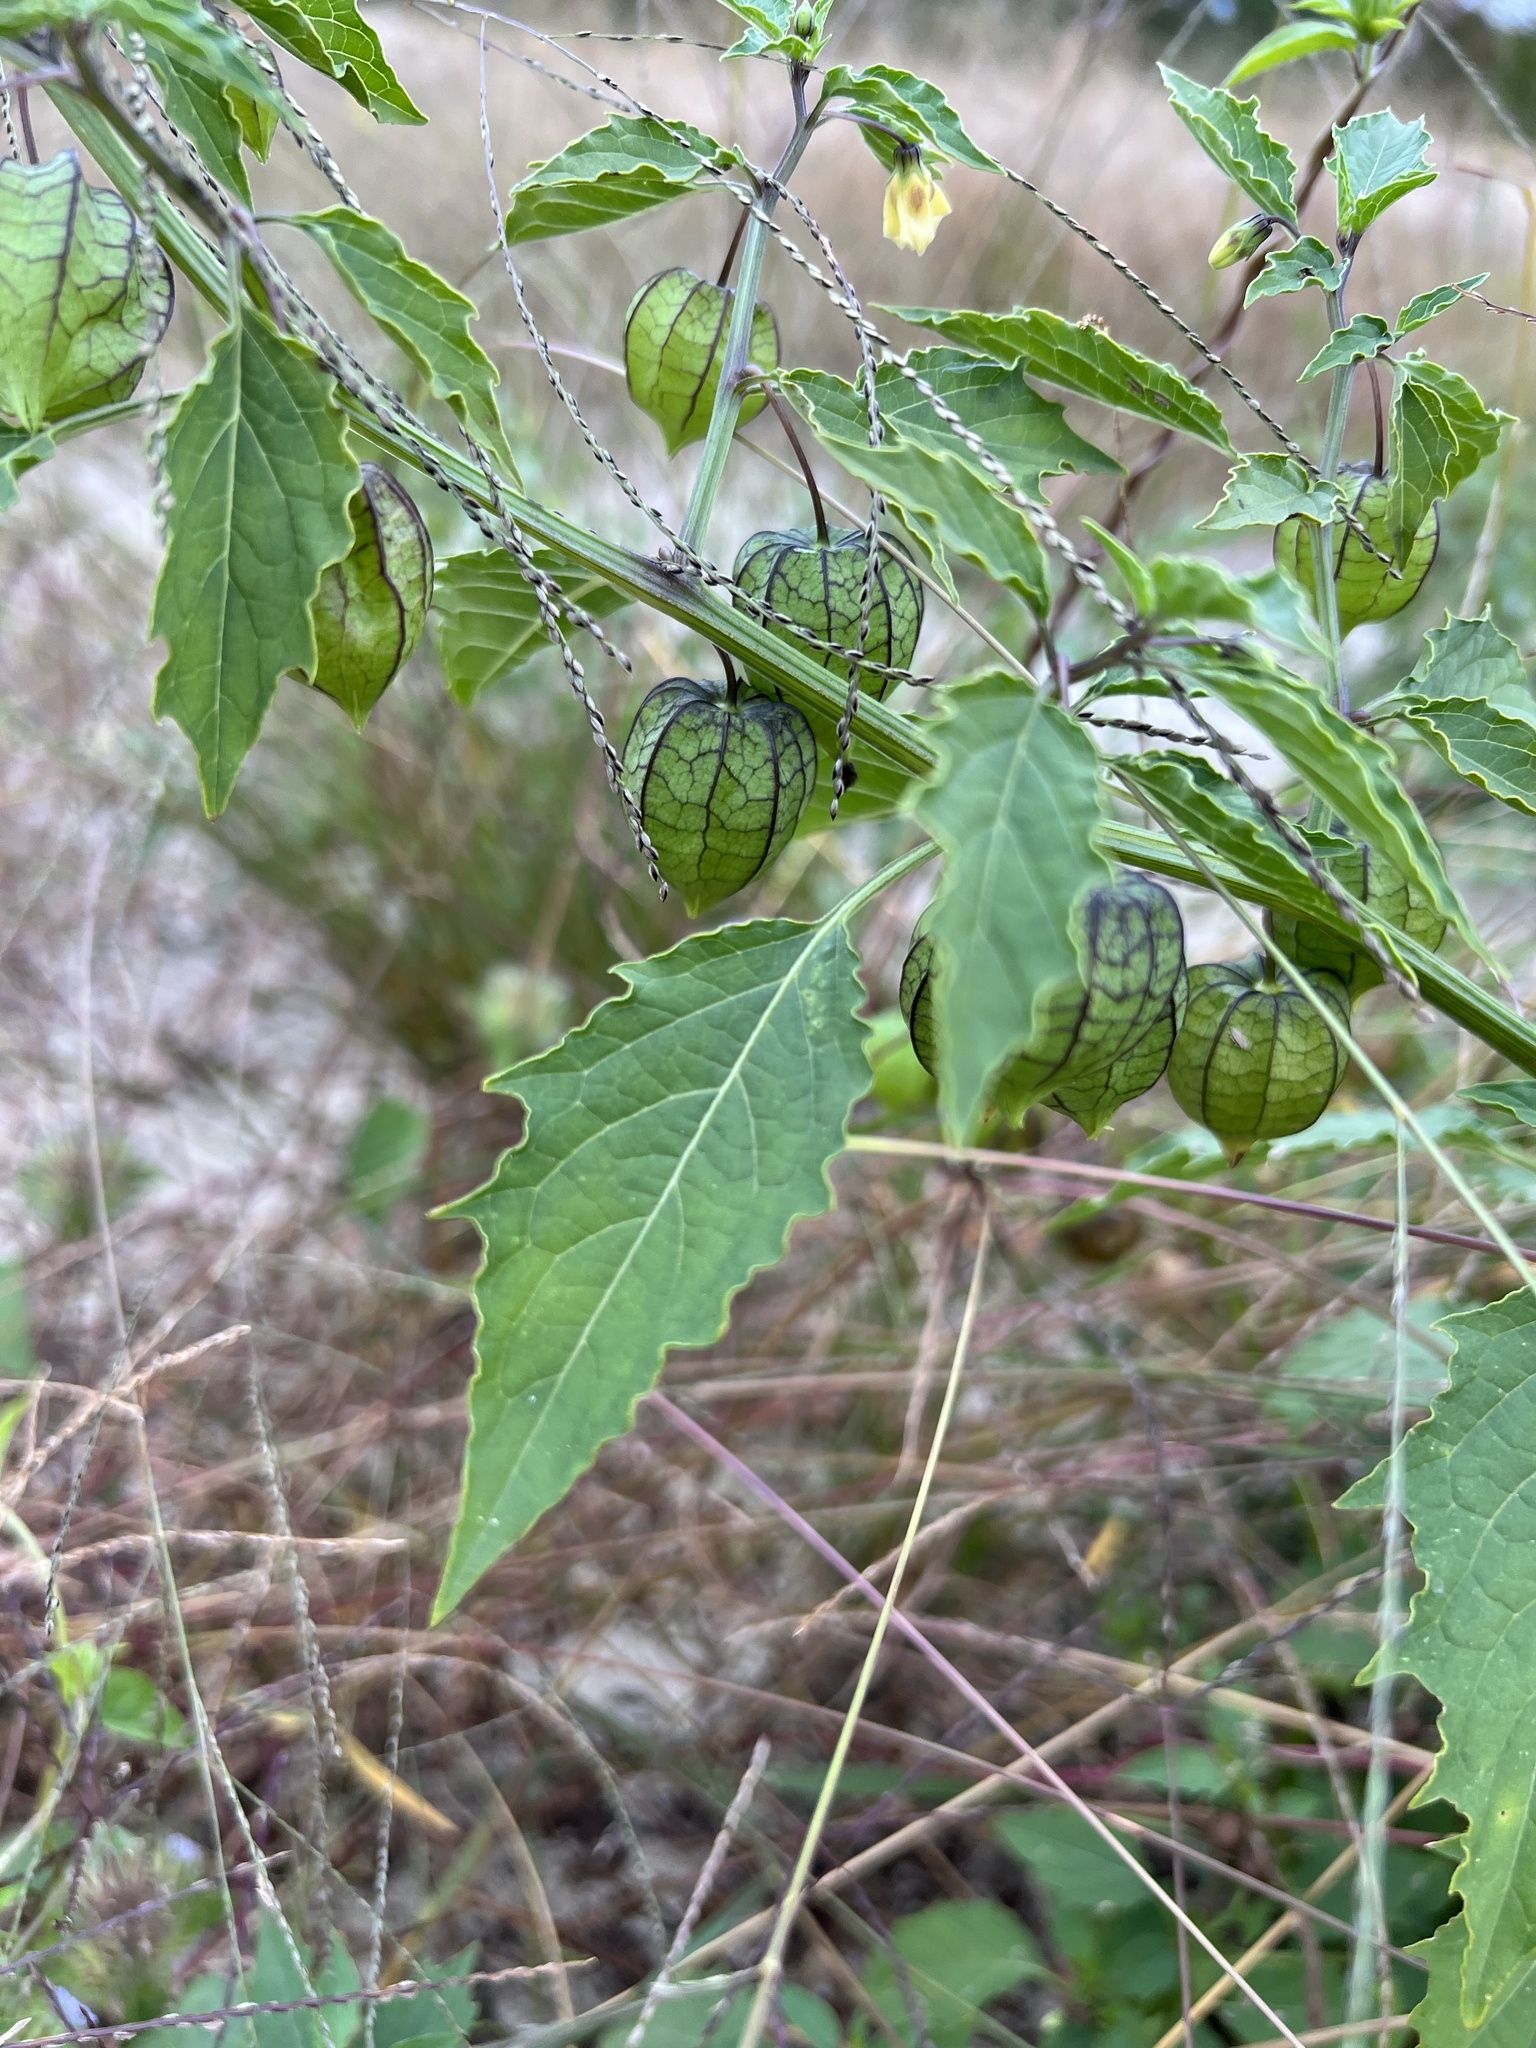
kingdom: Plantae
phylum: Tracheophyta
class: Magnoliopsida
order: Solanales
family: Solanaceae
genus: Physalis
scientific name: Physalis angulata
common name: Angular winter-cherry
